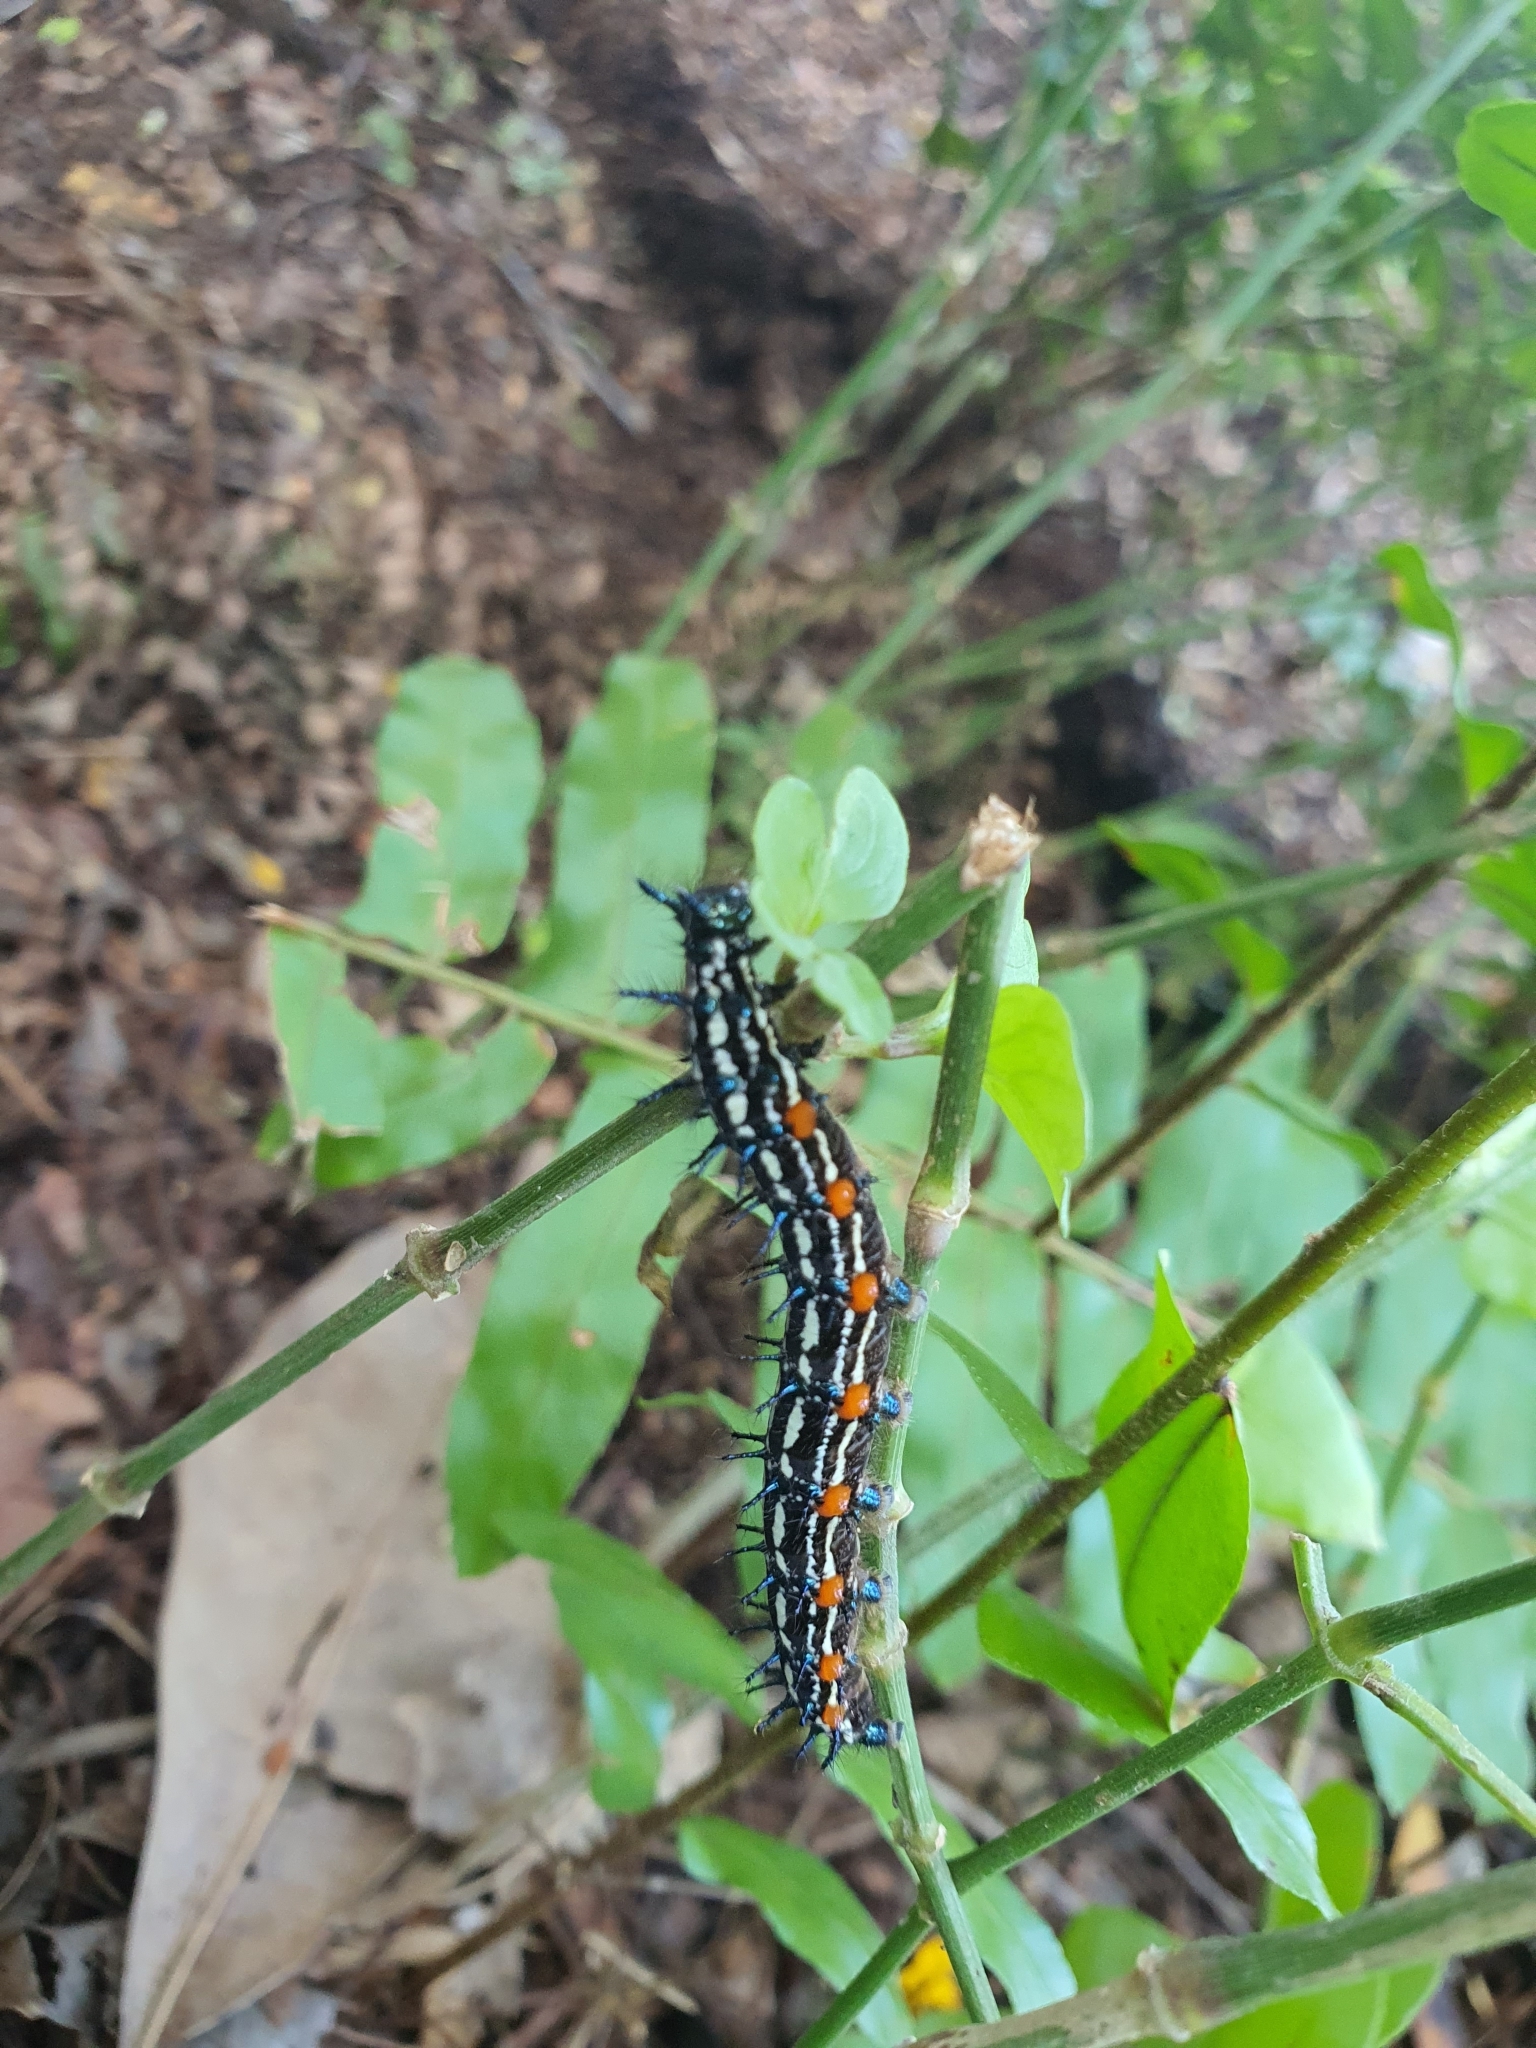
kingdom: Animalia
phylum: Arthropoda
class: Insecta
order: Lepidoptera
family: Nymphalidae
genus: Doleschallia
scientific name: Doleschallia bisaltide
